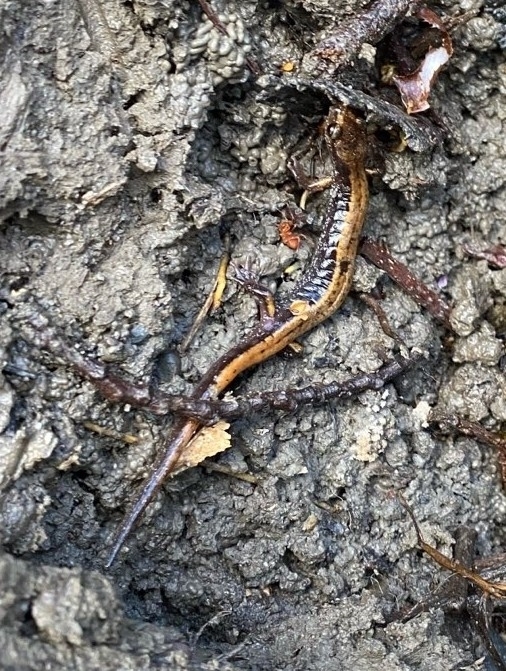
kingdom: Animalia
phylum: Chordata
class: Amphibia
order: Caudata
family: Plethodontidae
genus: Plethodon
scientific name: Plethodon vehiculum
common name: Western red-backed salamander
